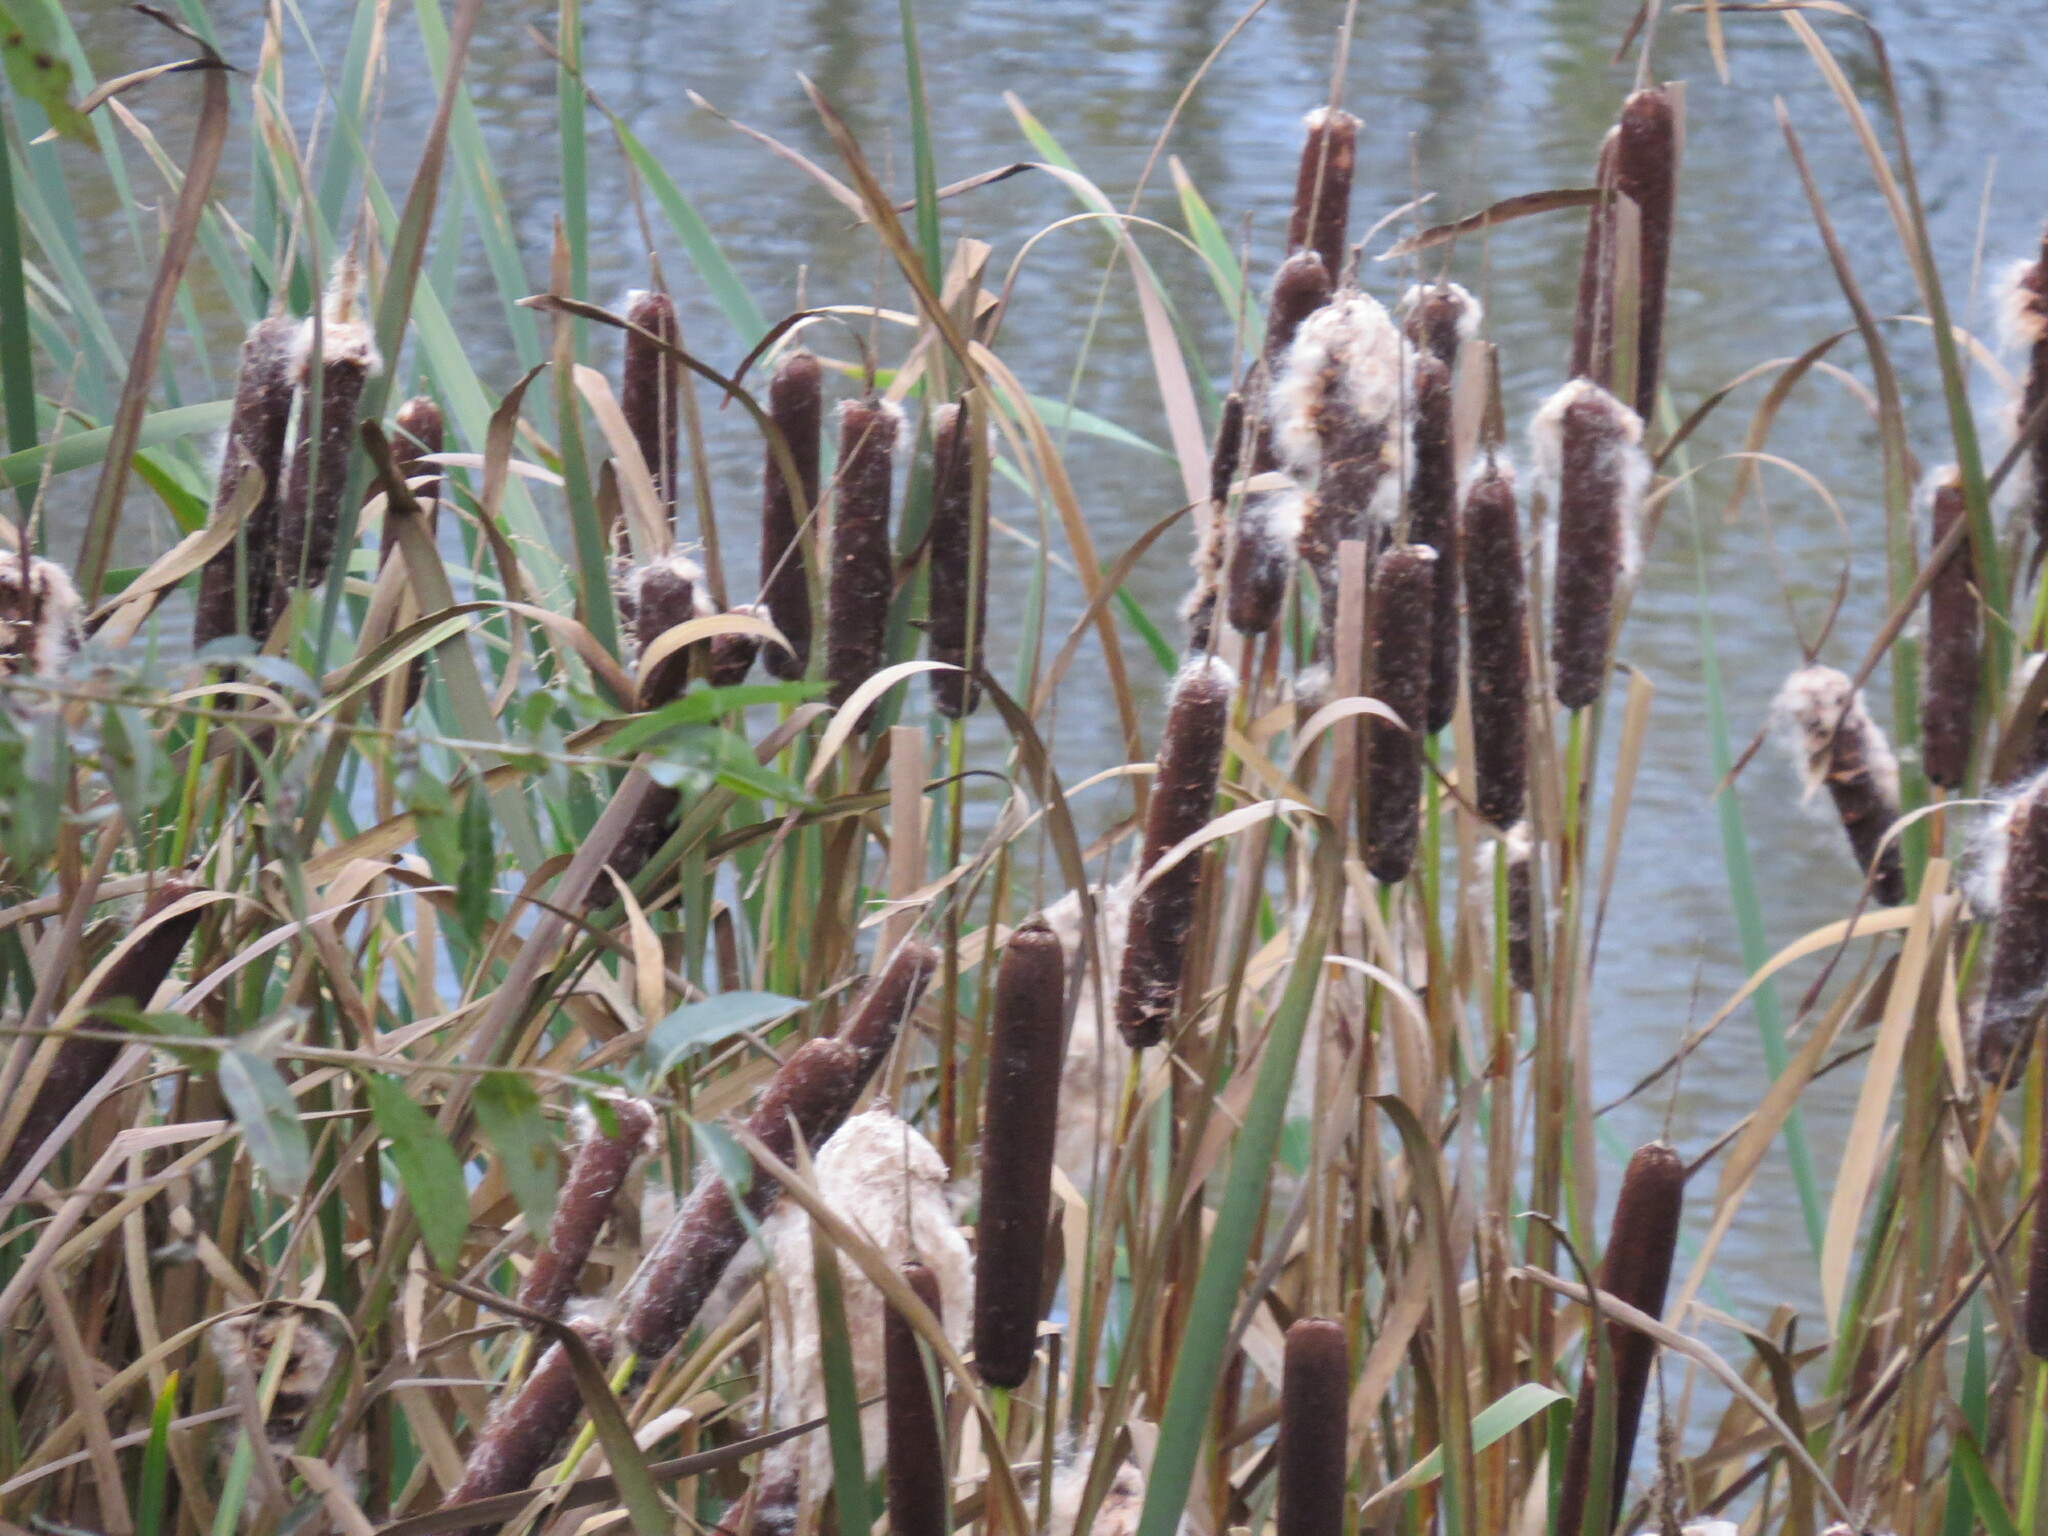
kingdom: Plantae
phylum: Tracheophyta
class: Liliopsida
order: Poales
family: Typhaceae
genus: Typha
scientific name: Typha latifolia
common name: Broadleaf cattail
